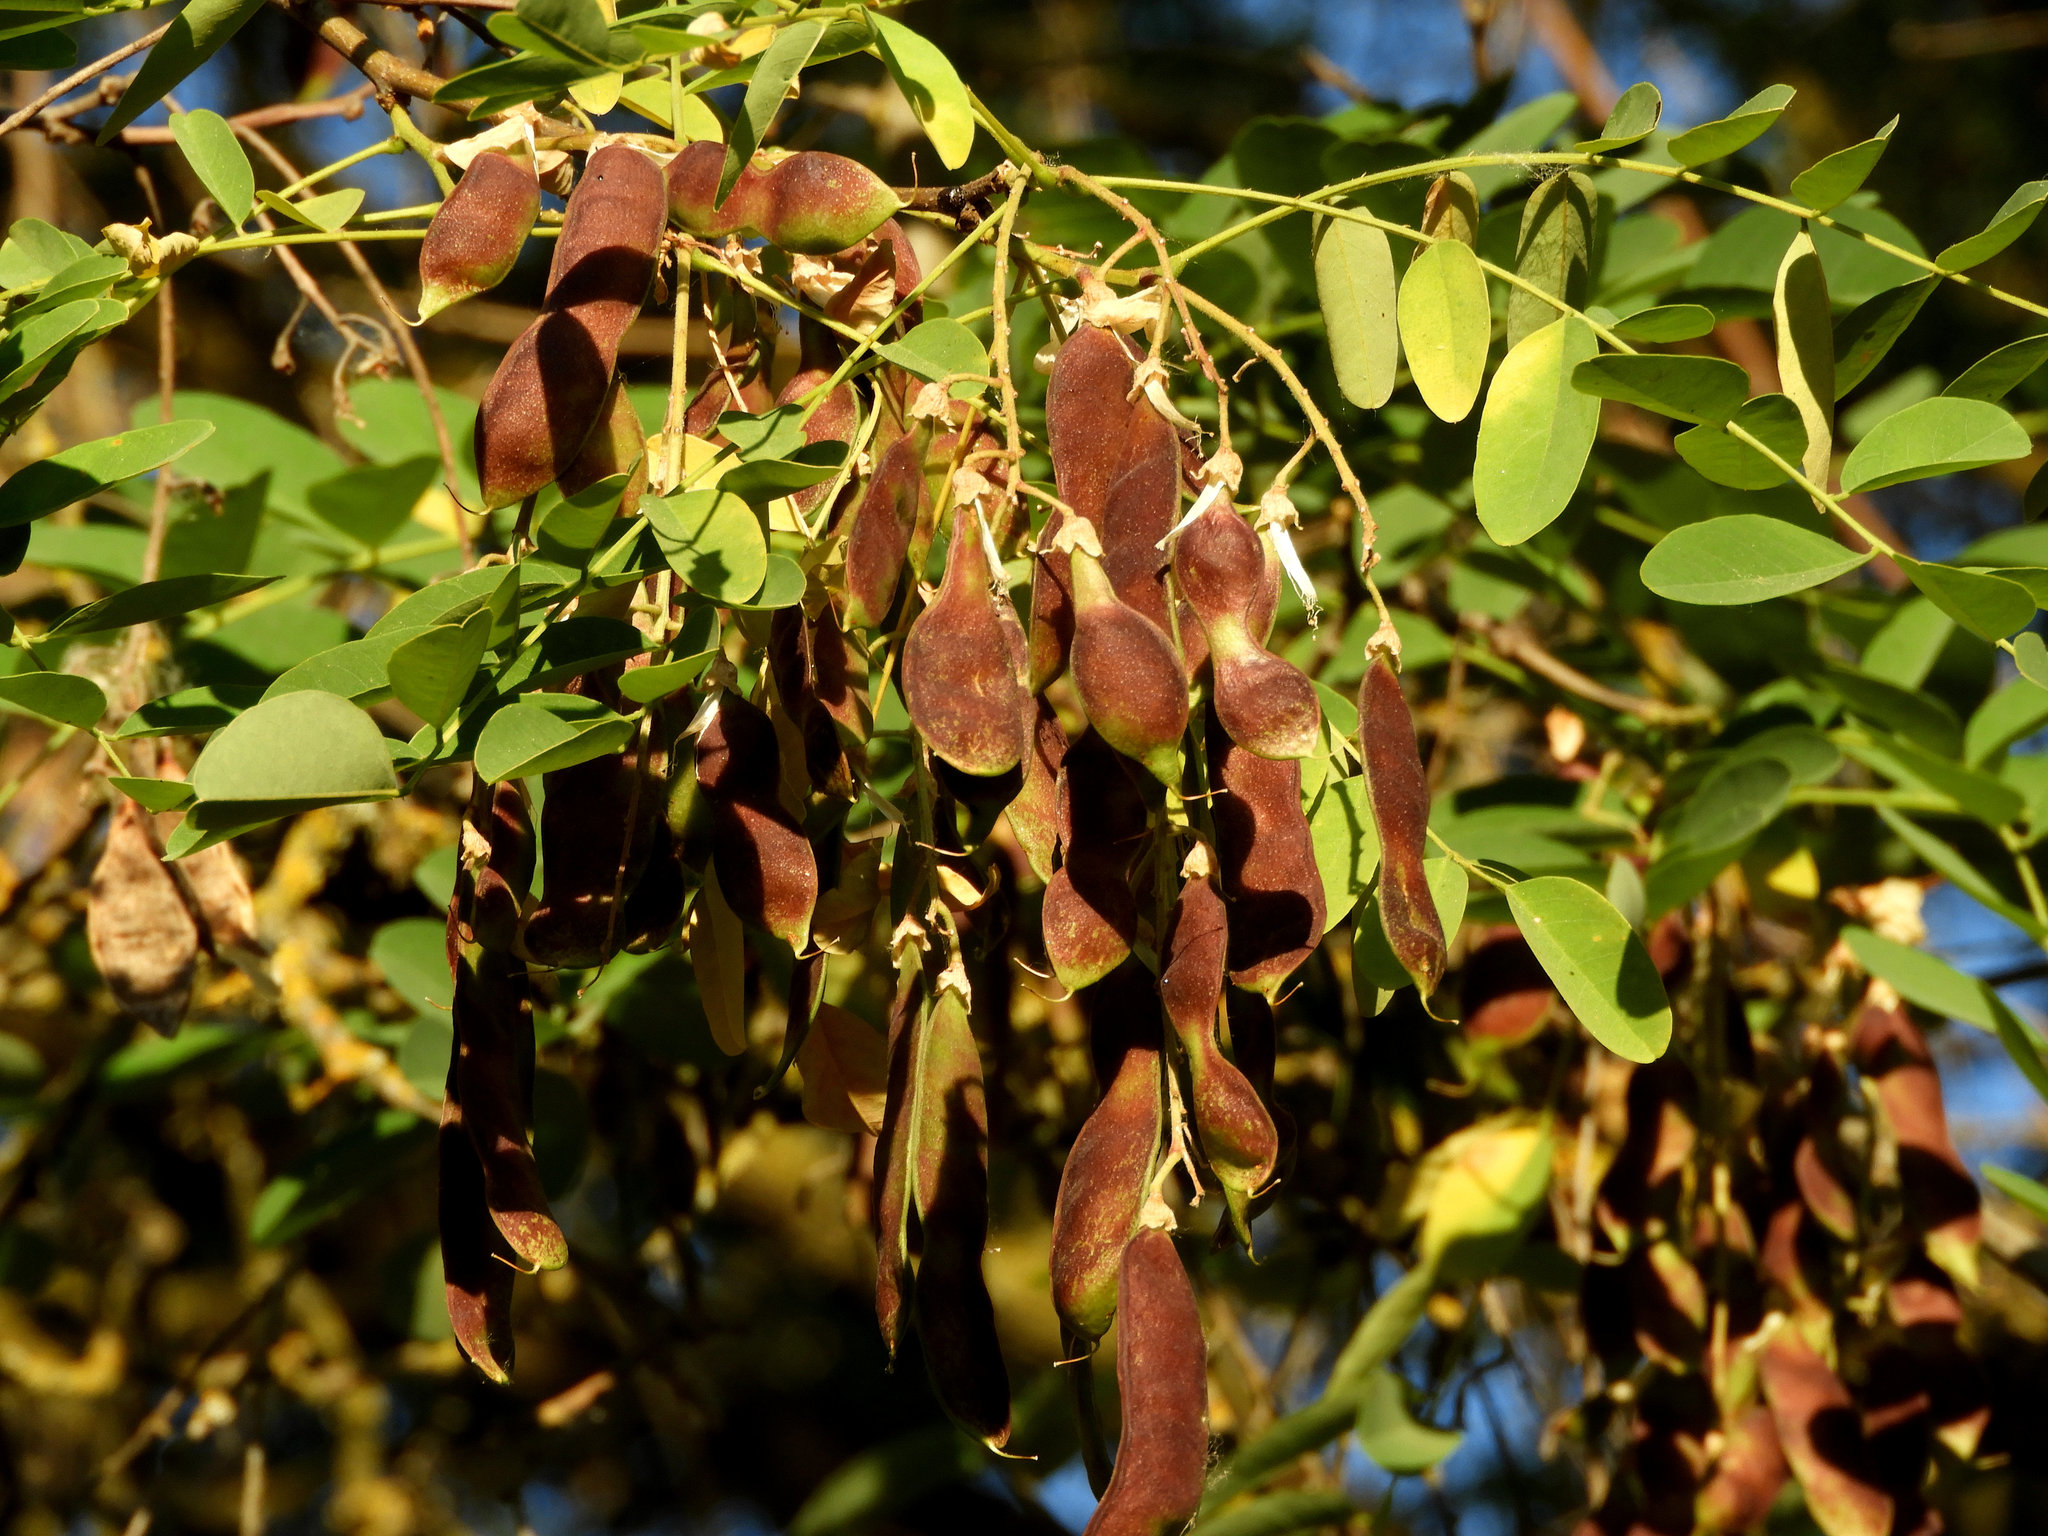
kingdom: Plantae
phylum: Tracheophyta
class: Magnoliopsida
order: Fabales
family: Fabaceae
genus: Robinia
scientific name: Robinia pseudoacacia
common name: Black locust
